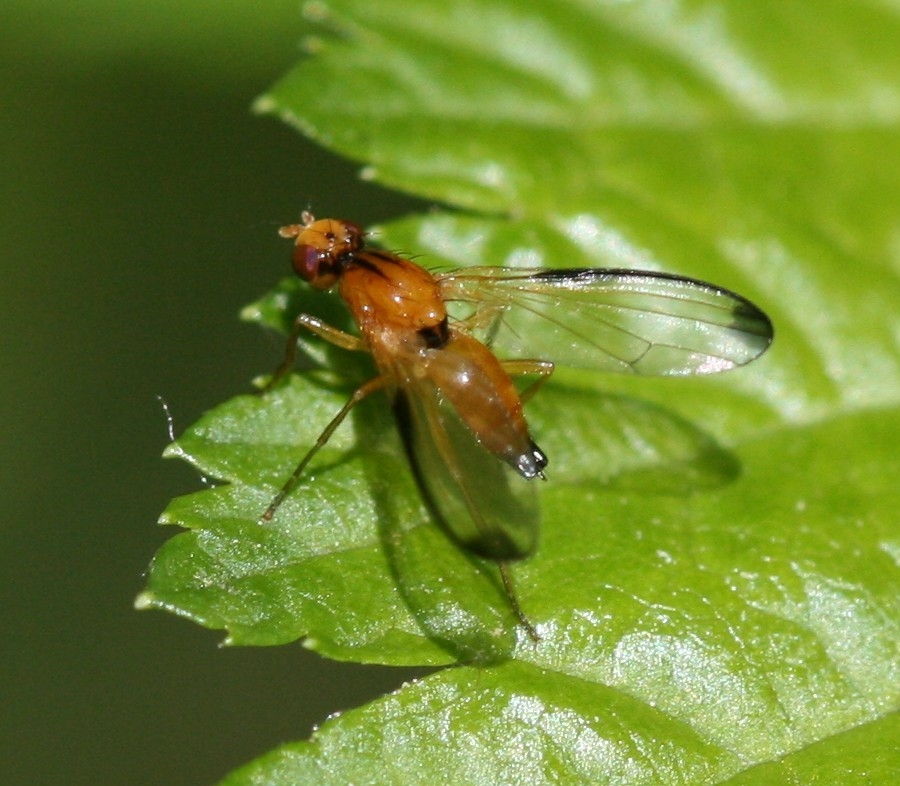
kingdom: Animalia
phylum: Arthropoda
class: Insecta
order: Diptera
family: Pallopteridae
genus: Palloptera
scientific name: Palloptera saltuum
